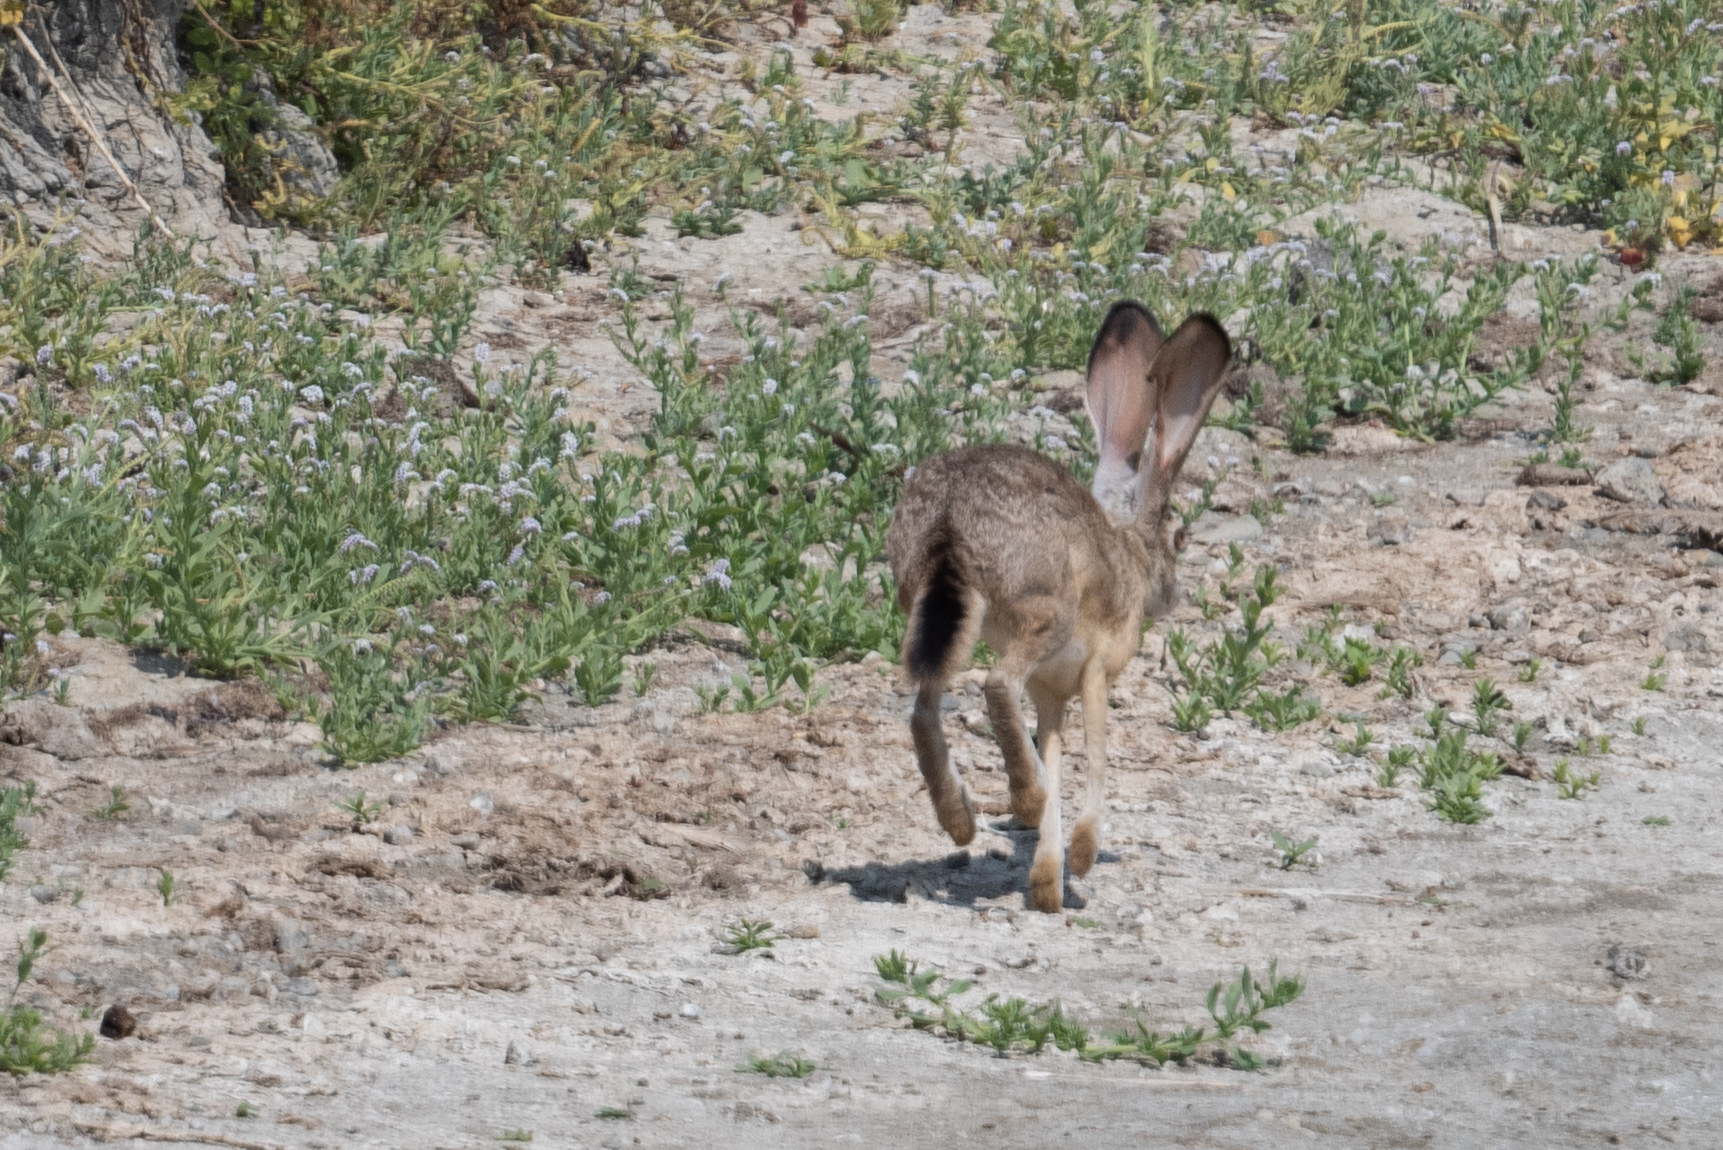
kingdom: Animalia
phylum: Chordata
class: Mammalia
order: Lagomorpha
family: Leporidae
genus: Lepus
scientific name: Lepus californicus
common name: Black-tailed jackrabbit
